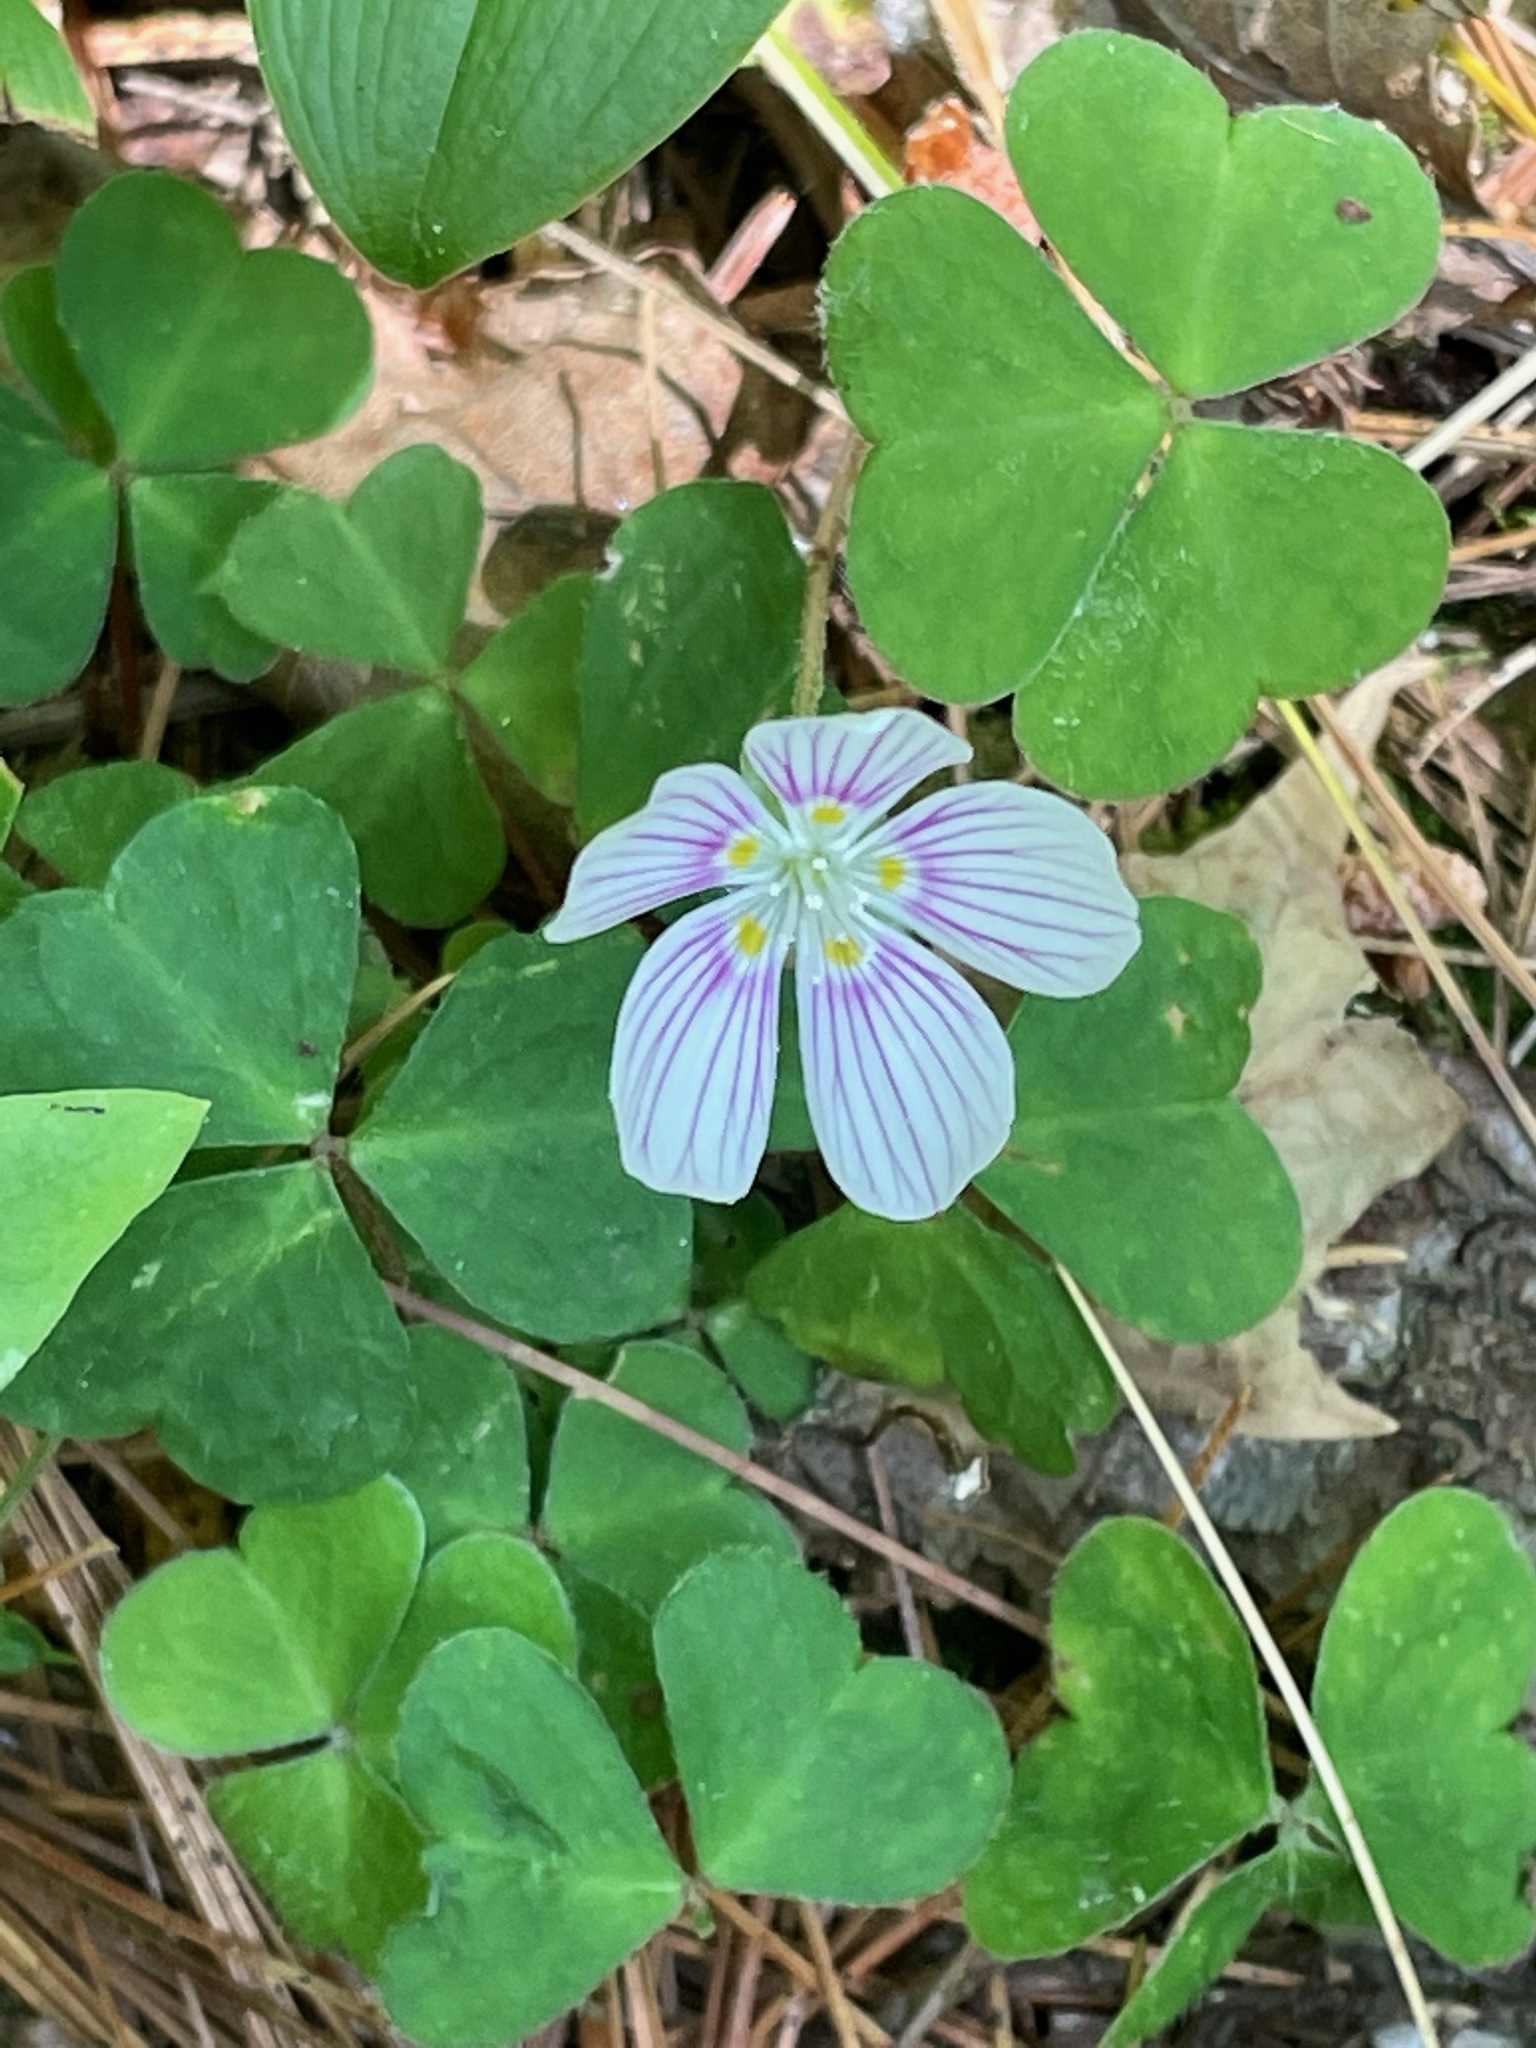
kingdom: Plantae
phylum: Tracheophyta
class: Magnoliopsida
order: Oxalidales
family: Oxalidaceae
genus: Oxalis
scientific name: Oxalis montana
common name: American wood-sorrel
